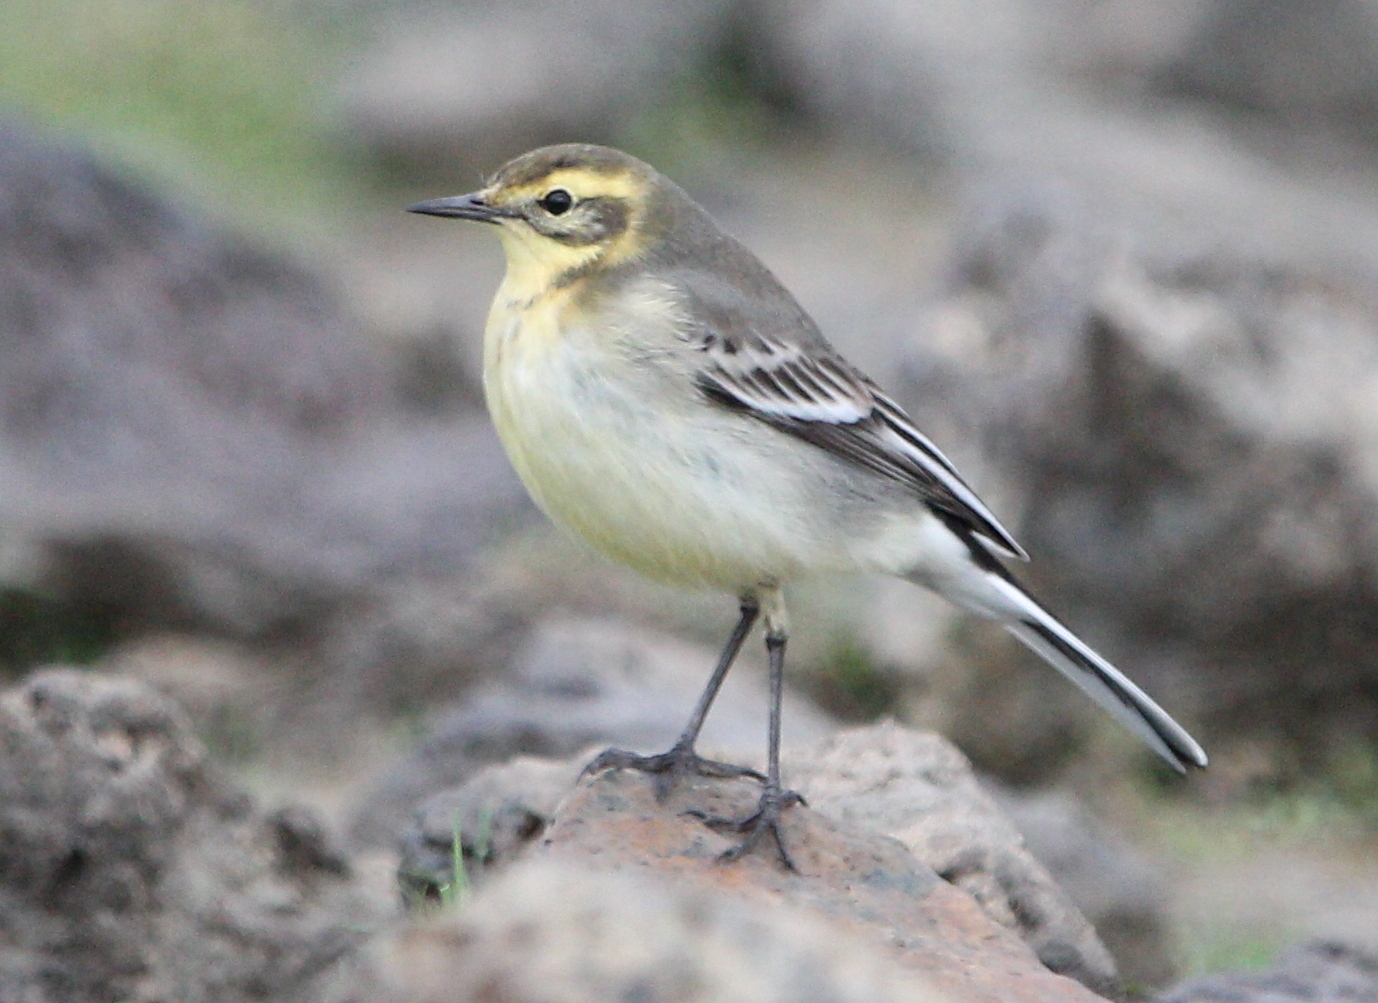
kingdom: Animalia
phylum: Chordata
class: Aves
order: Passeriformes
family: Motacillidae
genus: Motacilla
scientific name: Motacilla citreola
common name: Citrine wagtail
